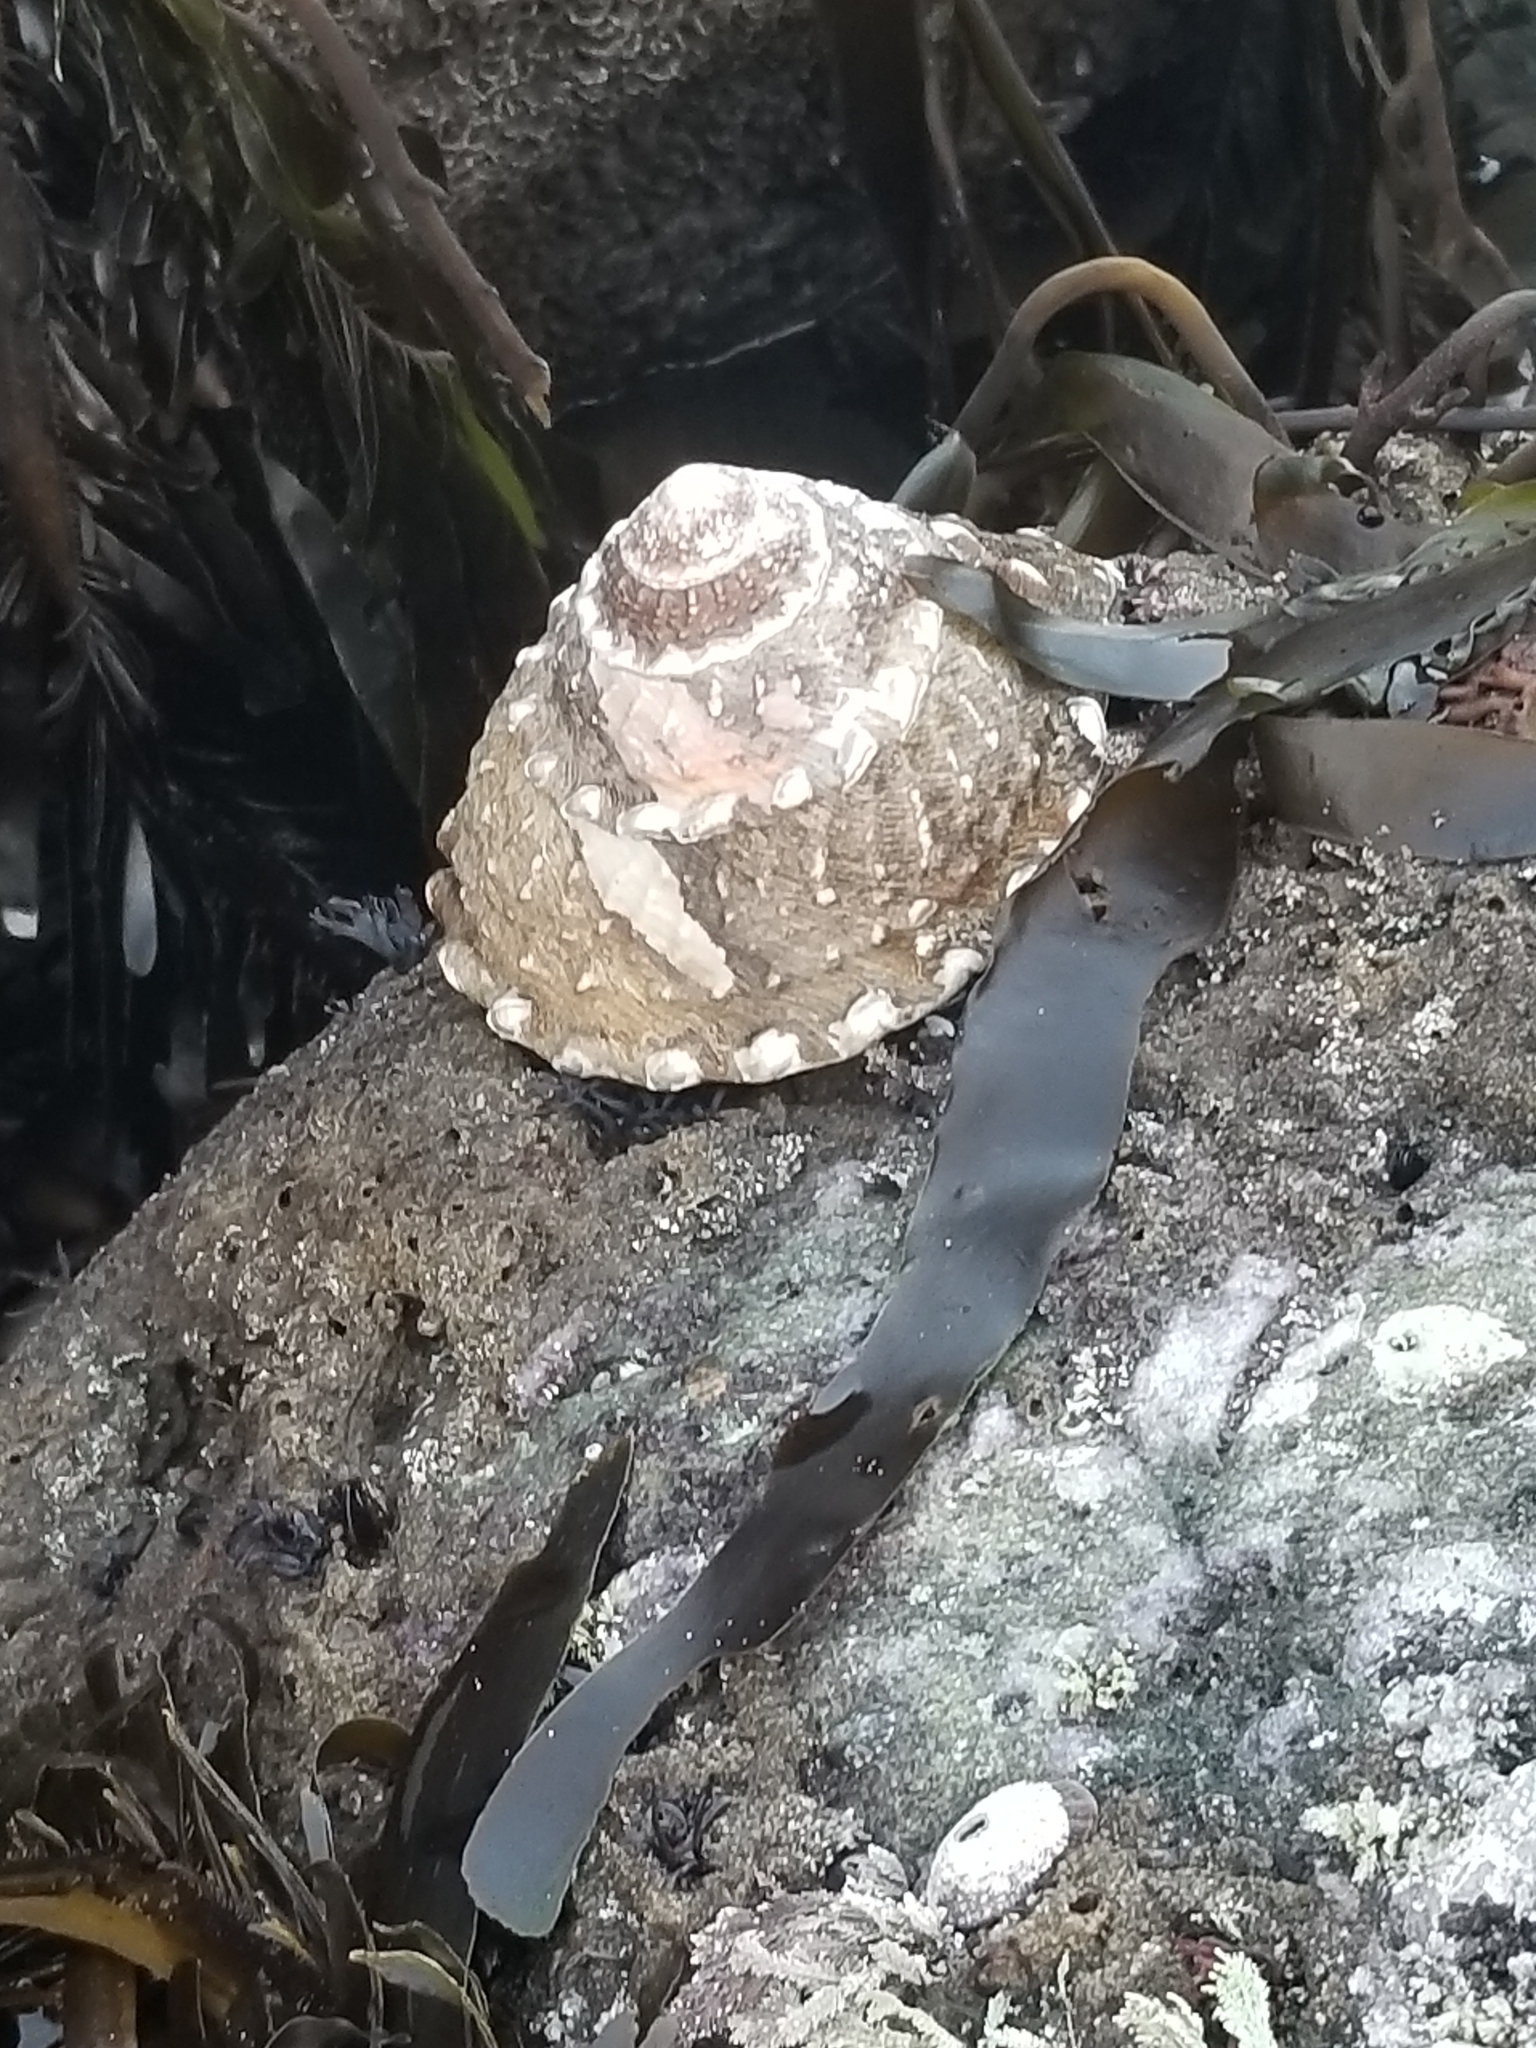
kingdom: Animalia
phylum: Mollusca
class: Gastropoda
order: Trochida
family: Turbinidae
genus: Megastraea
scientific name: Megastraea undosa
